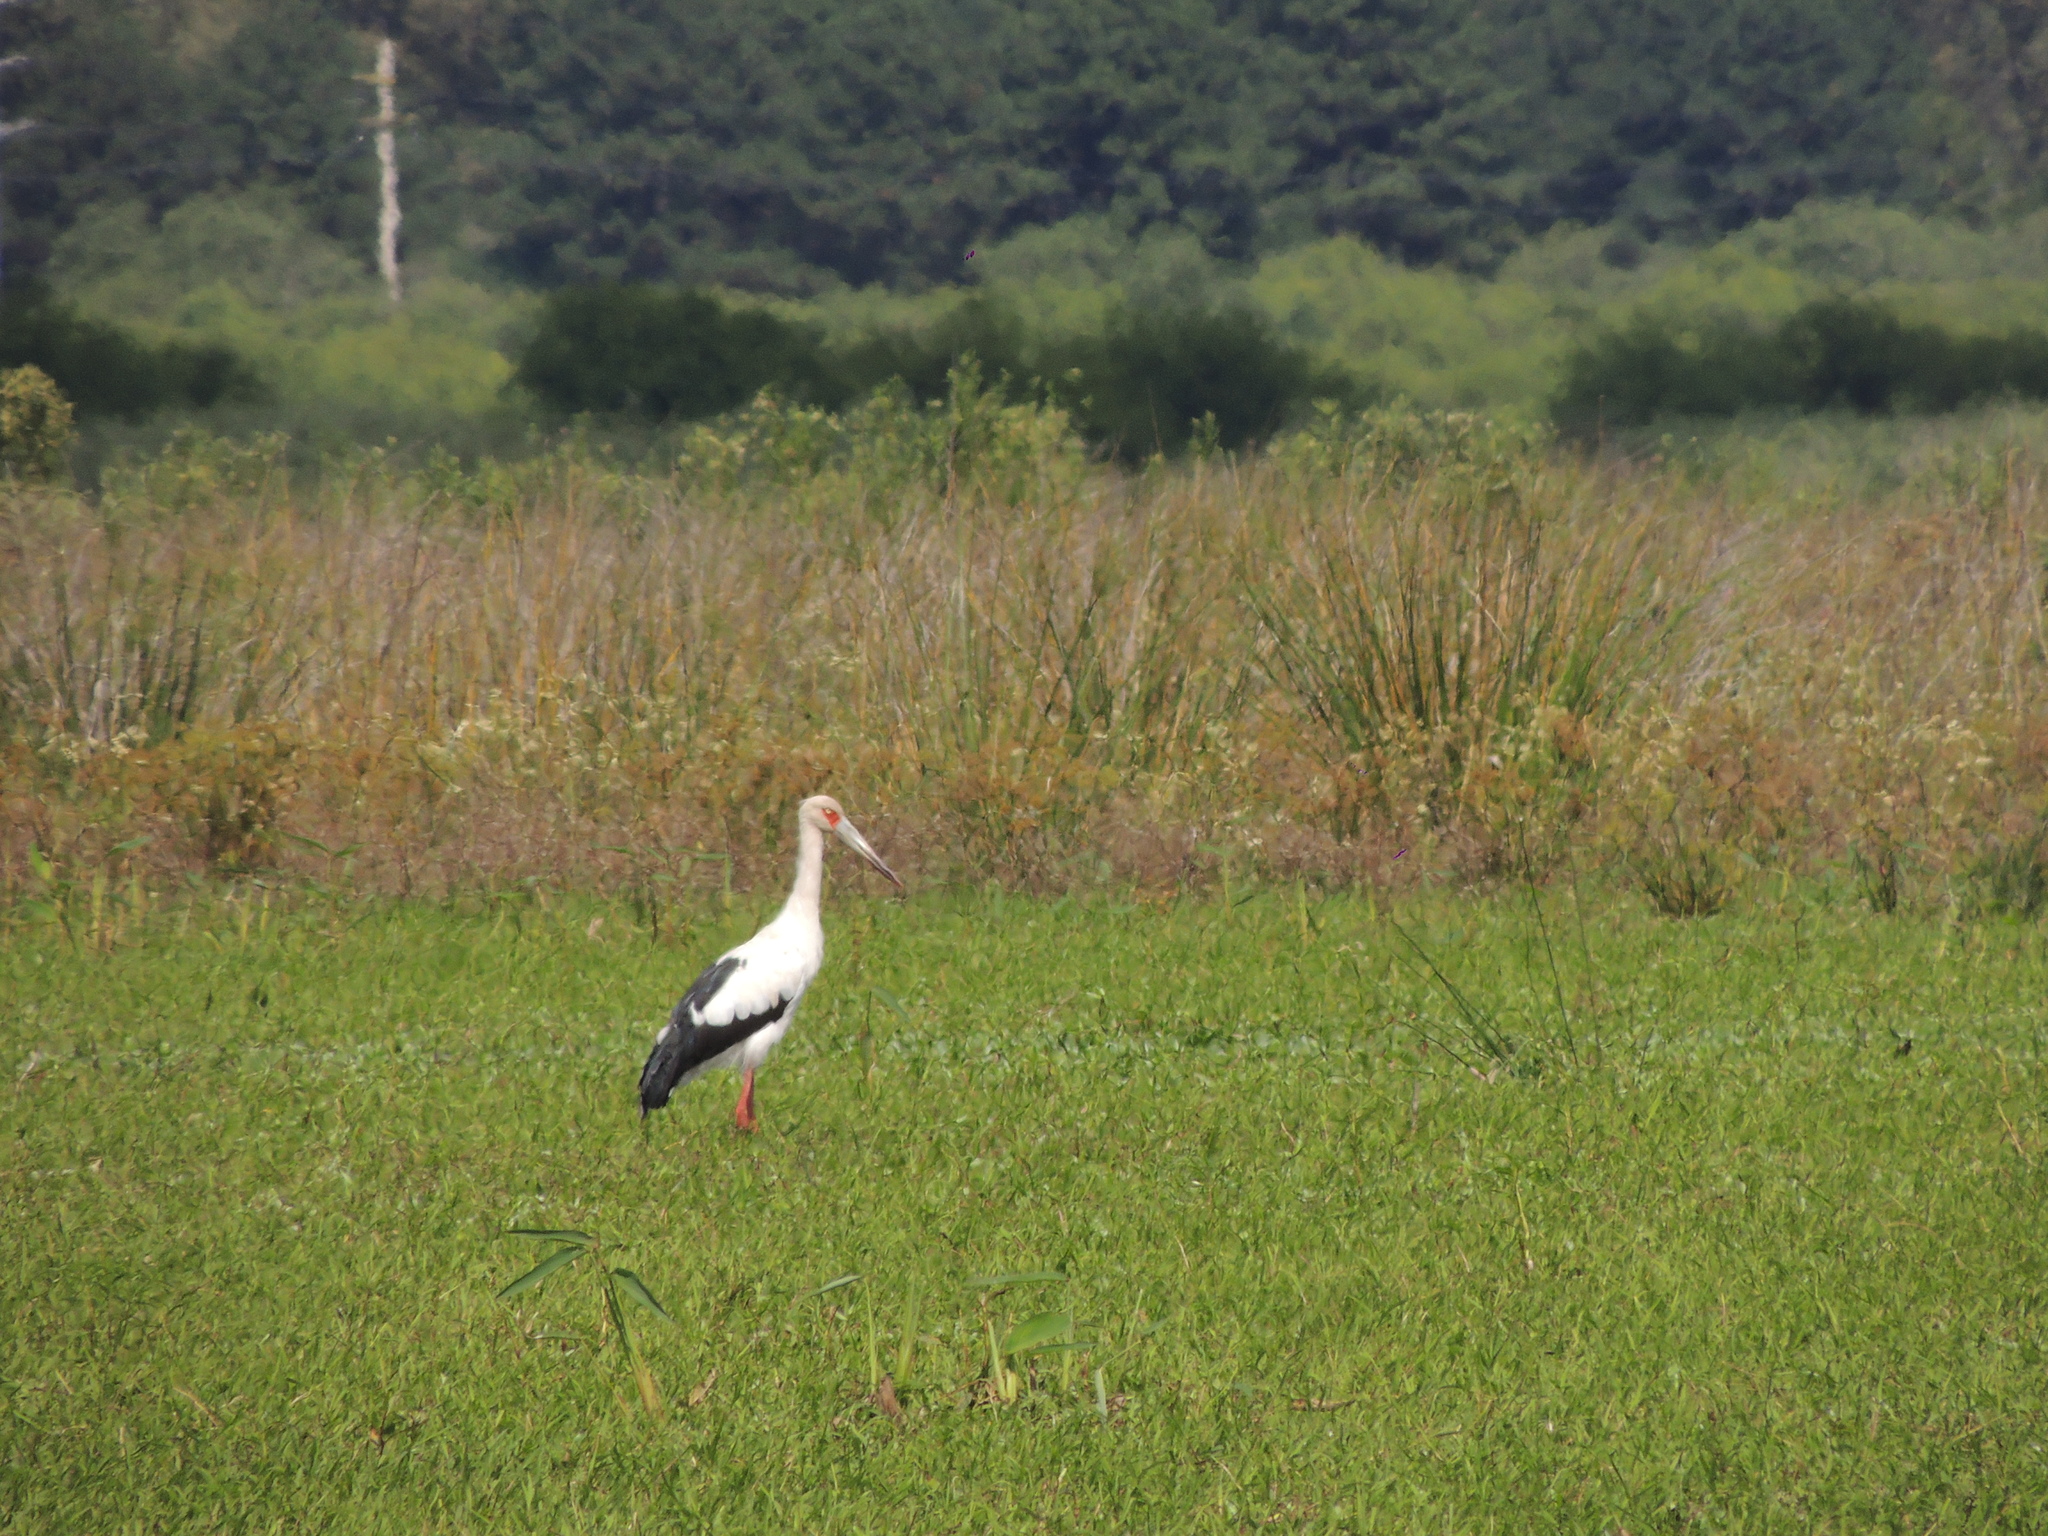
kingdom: Animalia
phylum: Chordata
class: Aves
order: Ciconiiformes
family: Ciconiidae
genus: Ciconia
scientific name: Ciconia maguari
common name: Maguari stork
